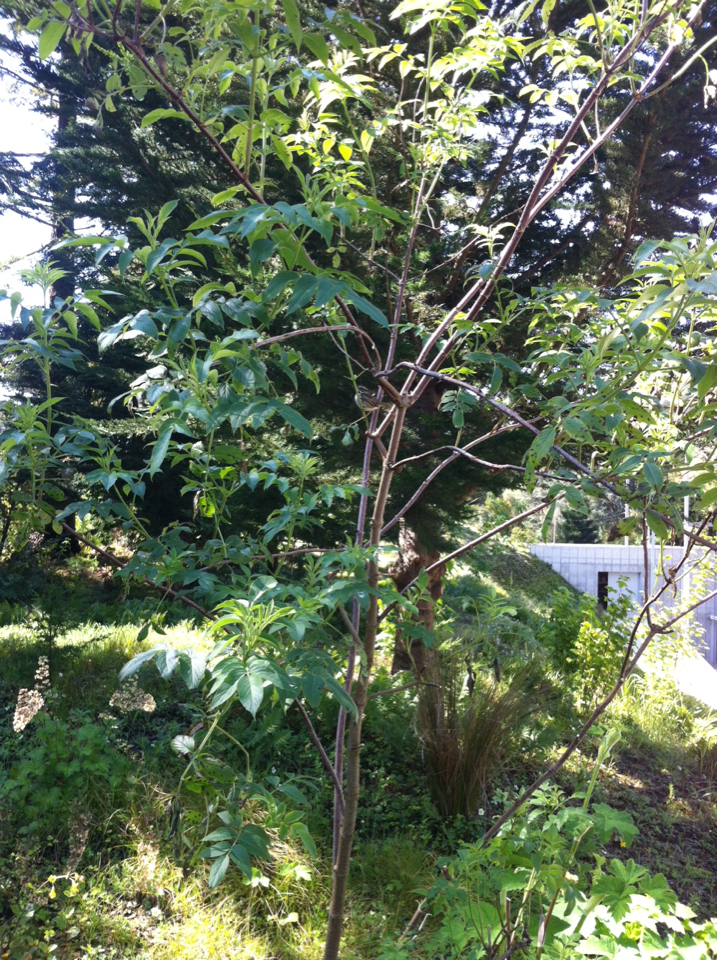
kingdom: Animalia
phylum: Chordata
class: Aves
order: Passeriformes
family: Passerellidae
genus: Melospiza
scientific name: Melospiza melodia
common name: Song sparrow
